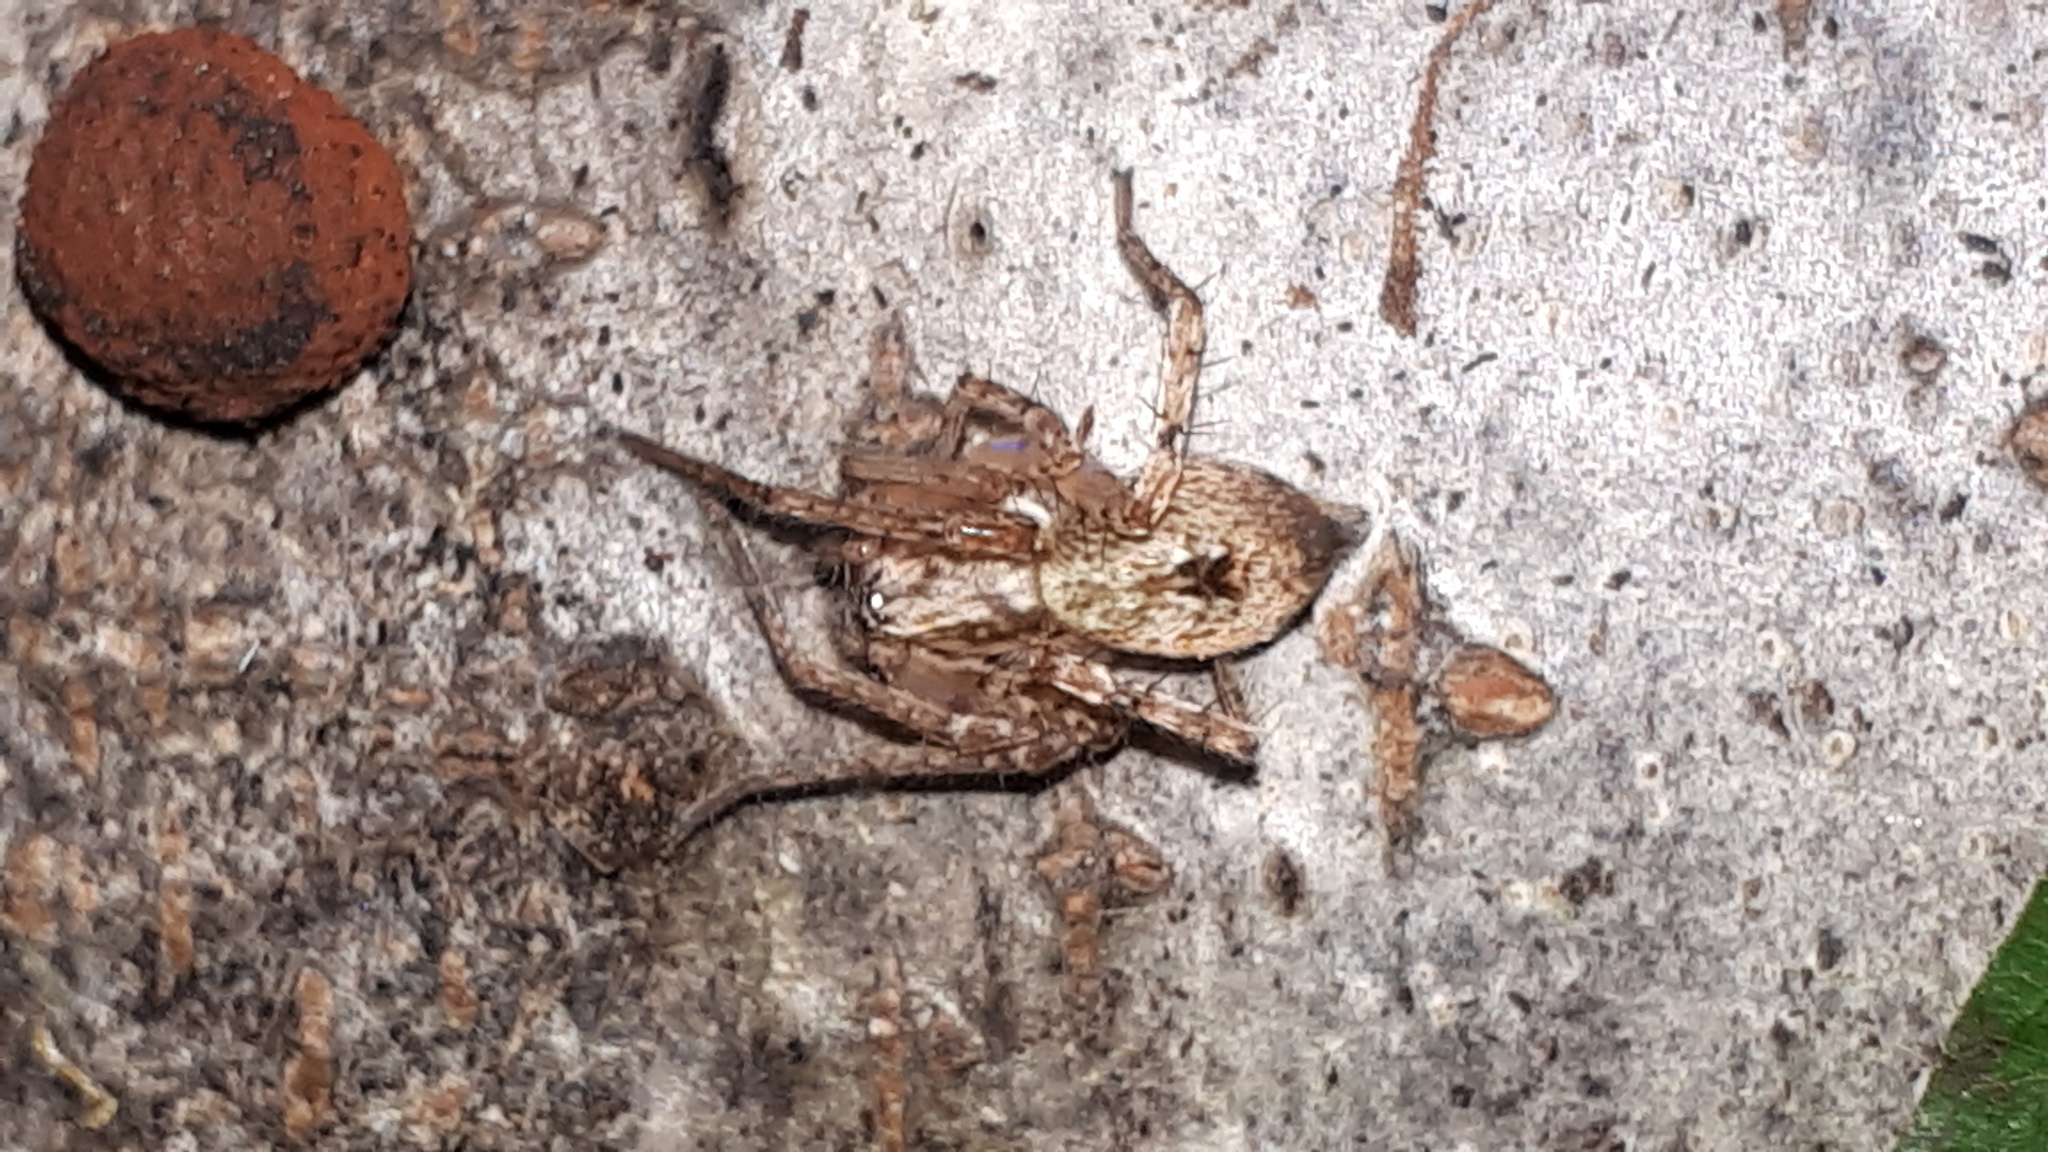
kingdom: Animalia
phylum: Arthropoda
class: Arachnida
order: Araneae
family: Anyphaenidae
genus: Anyphaena
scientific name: Anyphaena accentuata
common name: Buzzing spider
